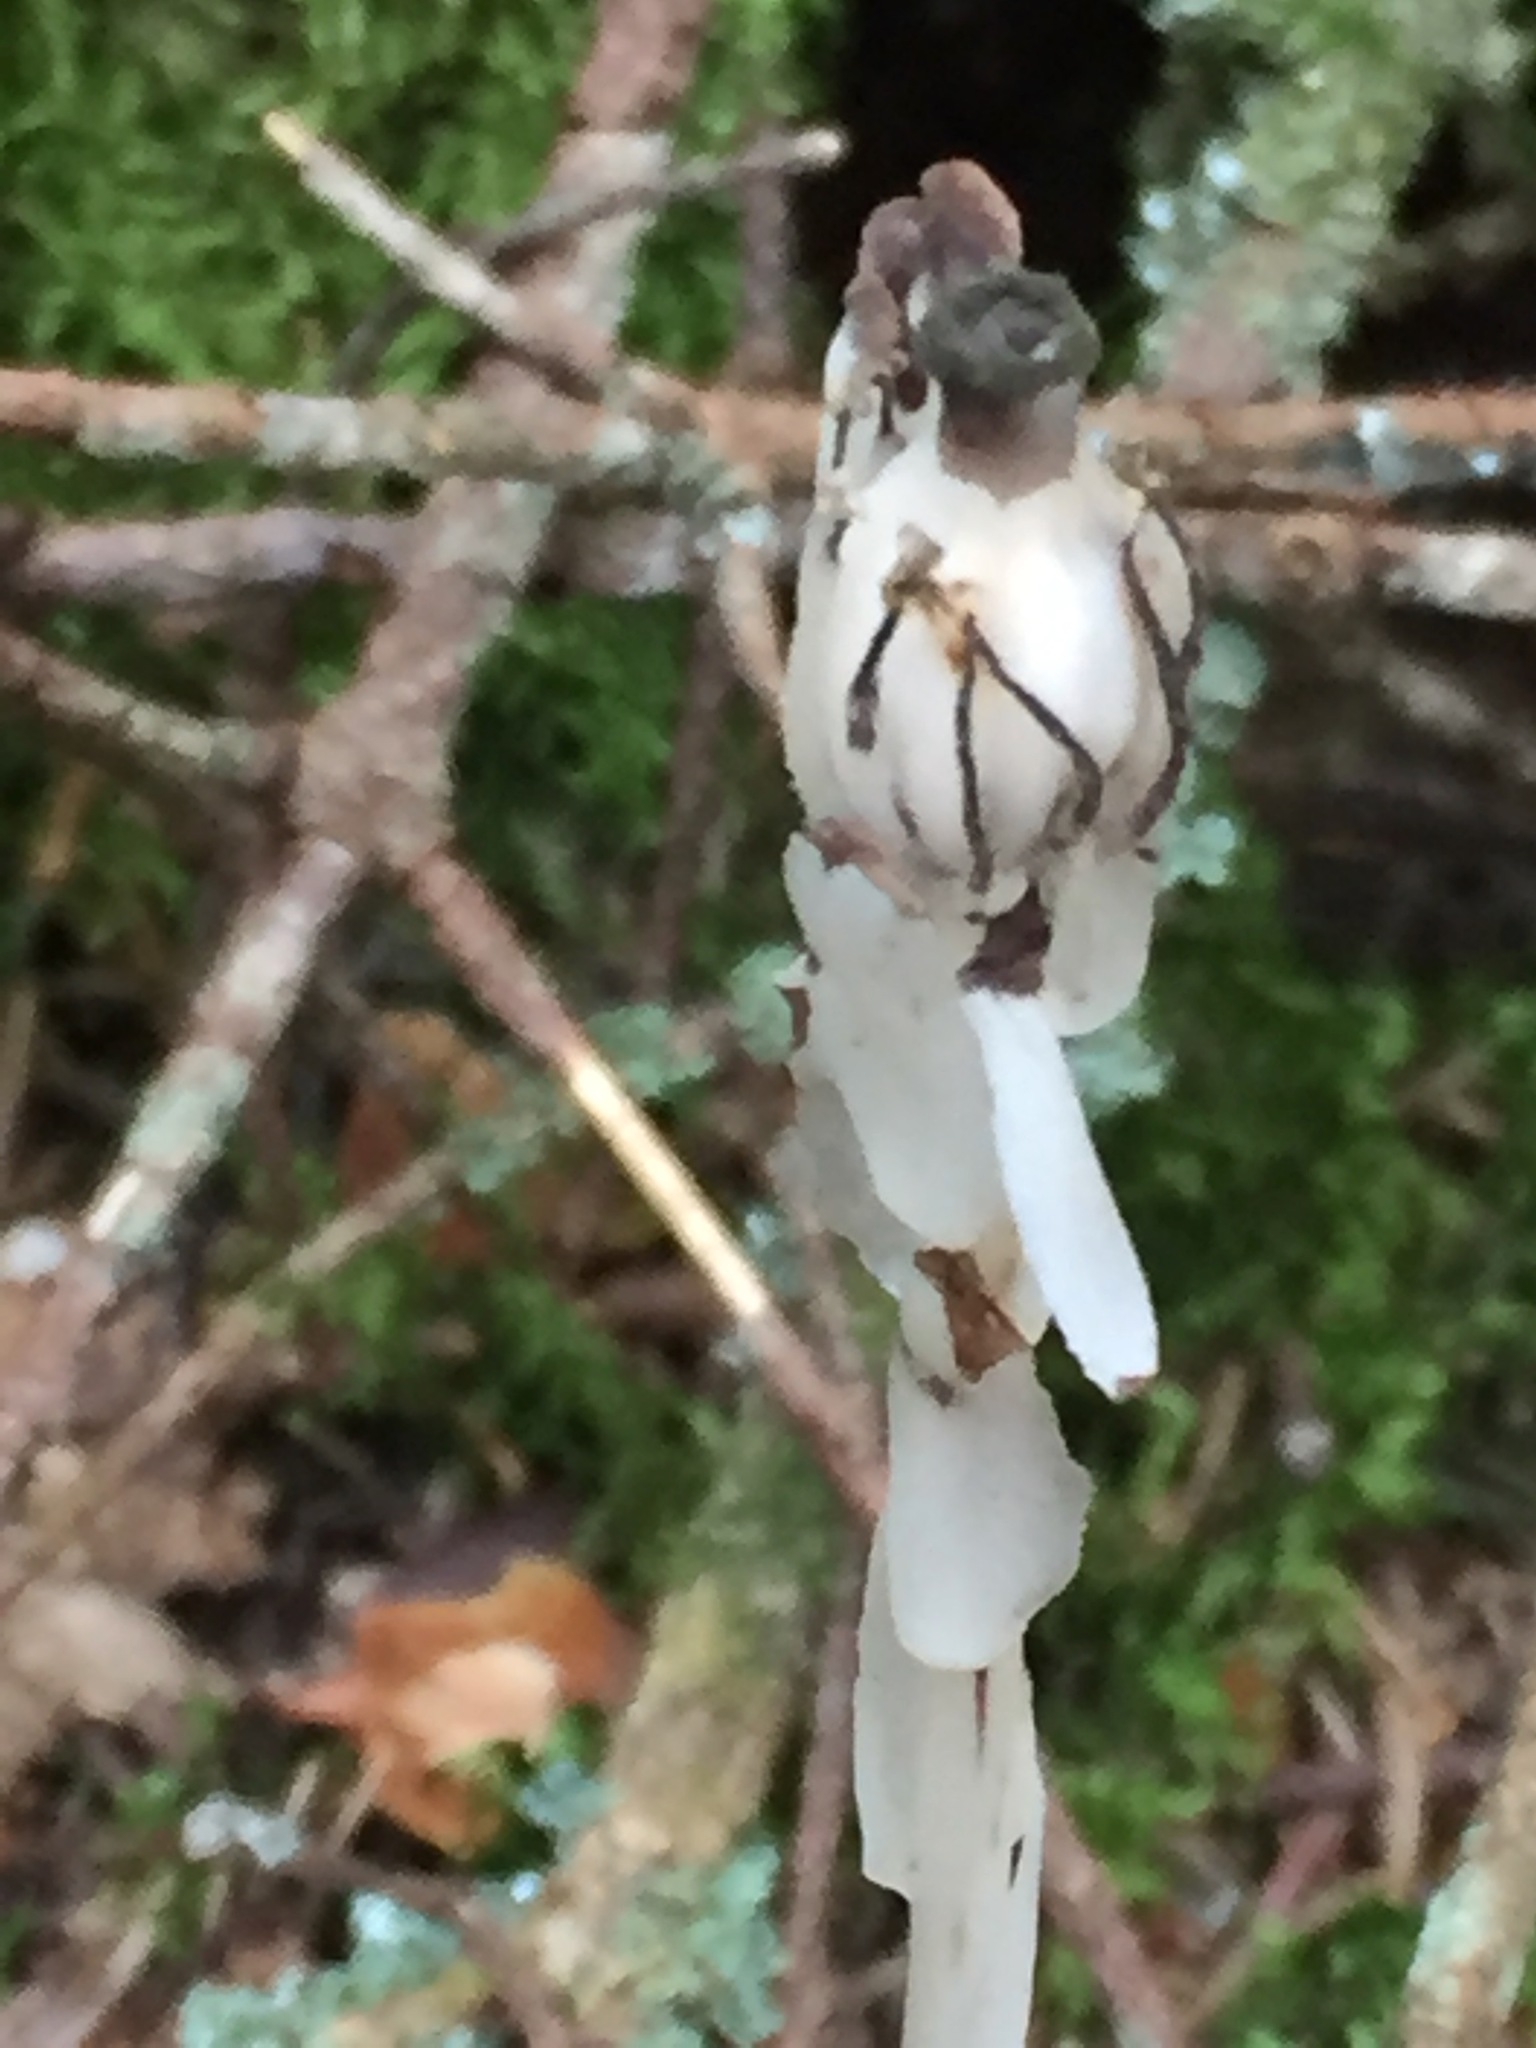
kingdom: Plantae
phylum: Tracheophyta
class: Magnoliopsida
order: Ericales
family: Ericaceae
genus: Monotropa
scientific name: Monotropa uniflora
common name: Convulsion root
